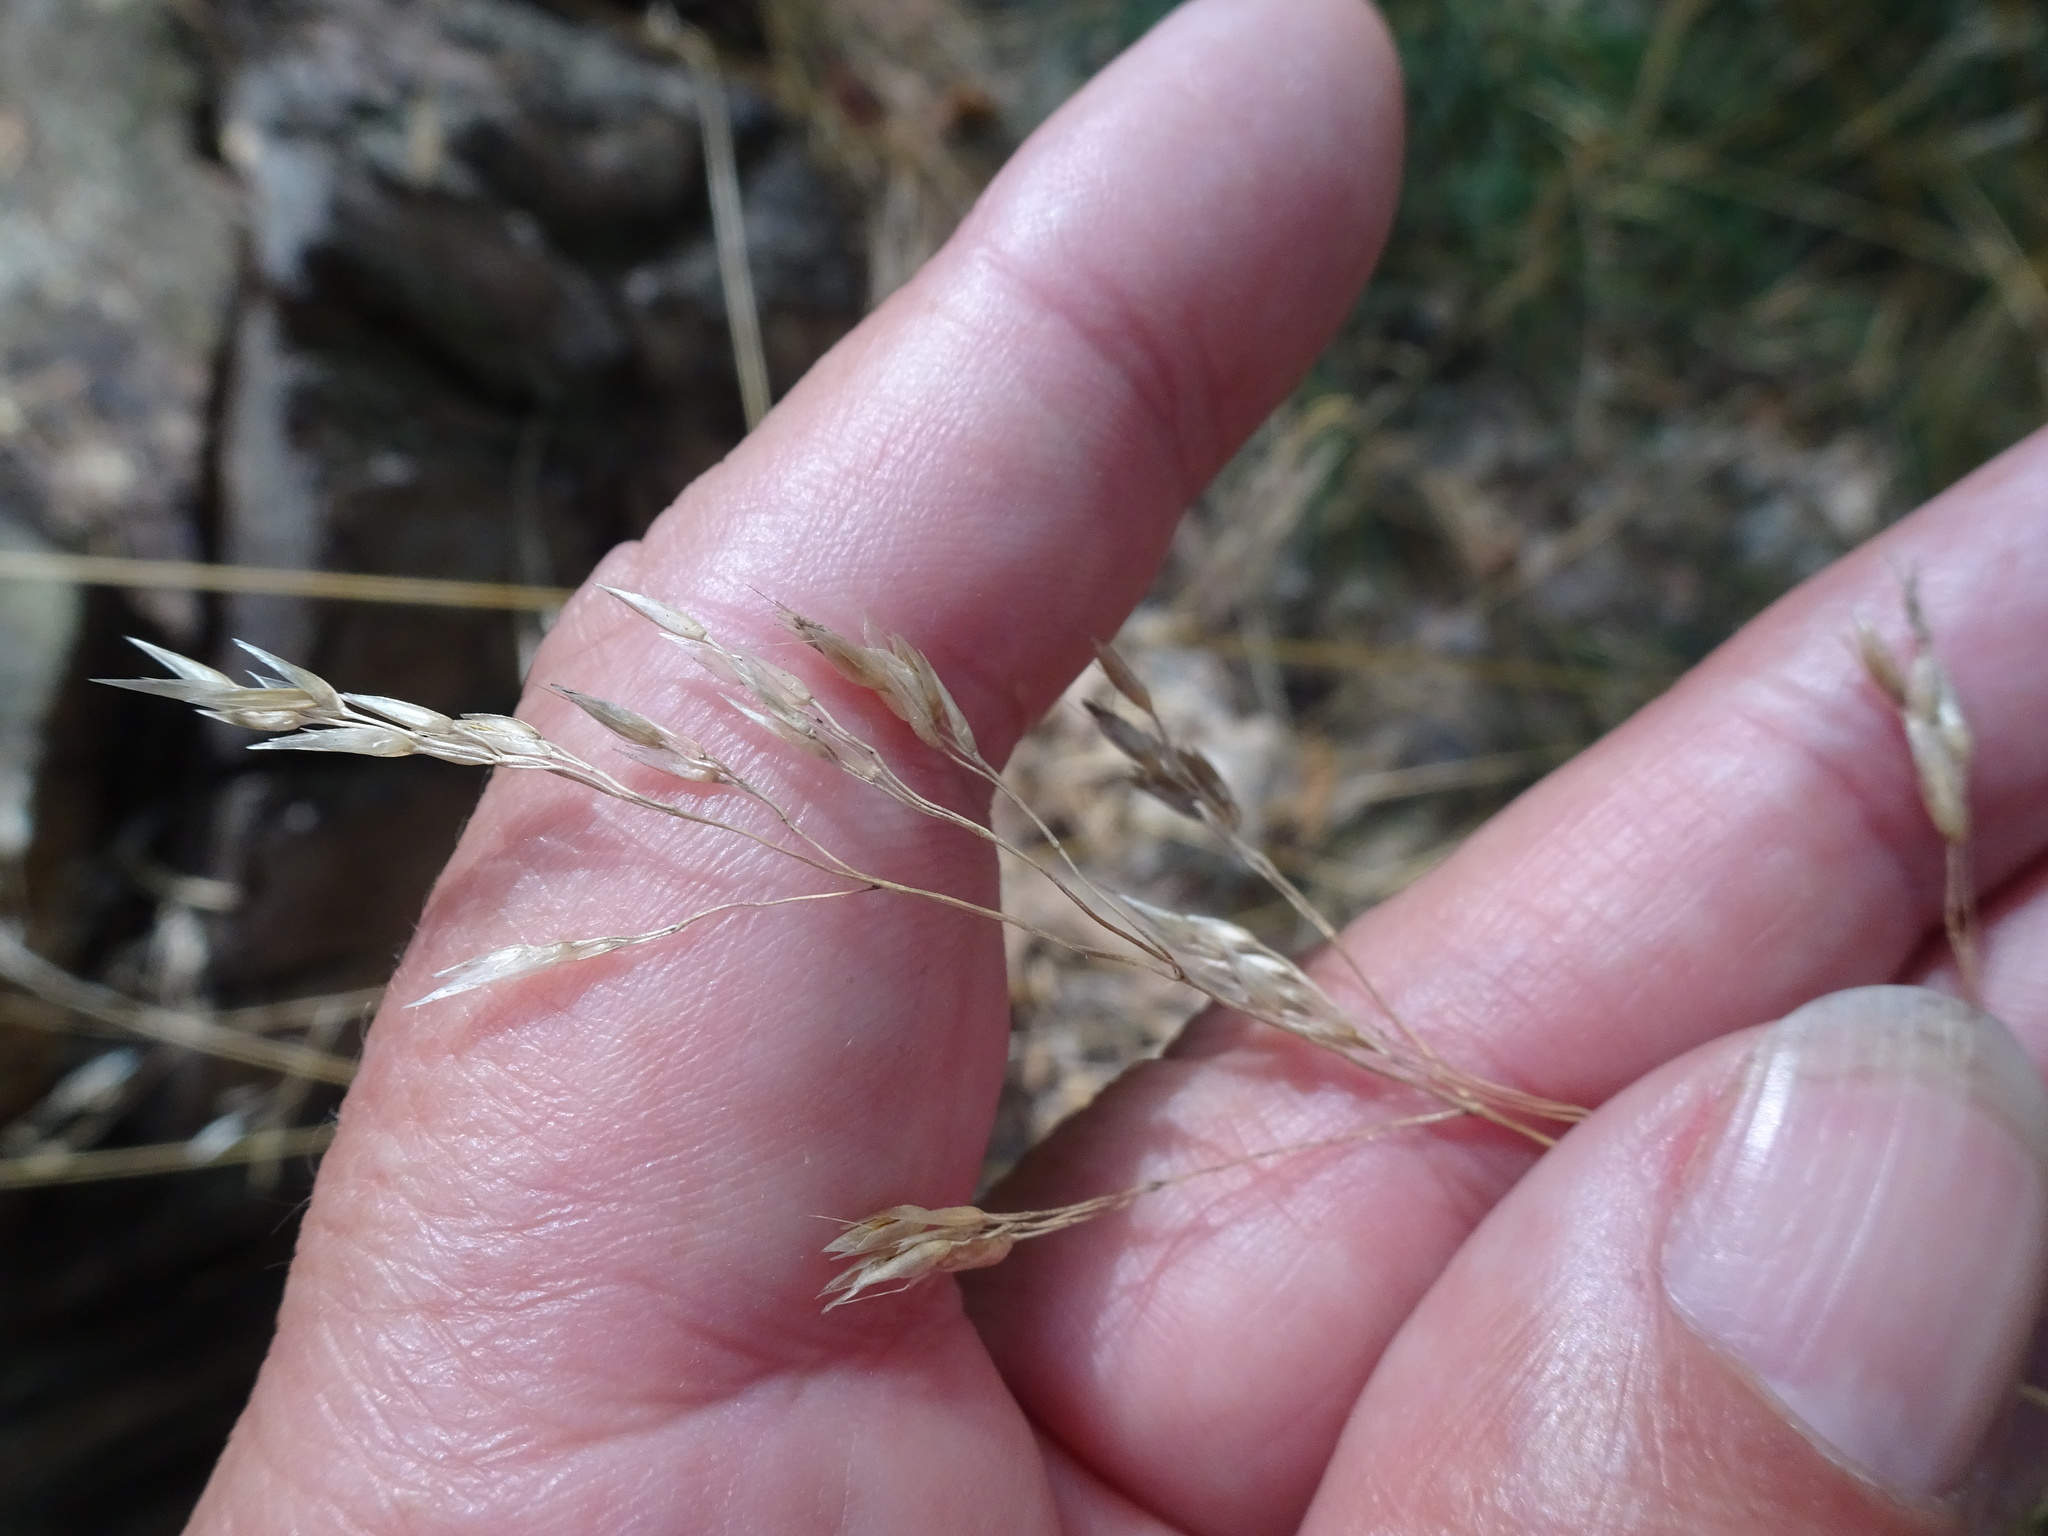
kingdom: Plantae
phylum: Tracheophyta
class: Liliopsida
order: Poales
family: Poaceae
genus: Avenella
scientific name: Avenella flexuosa
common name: Wavy hairgrass
